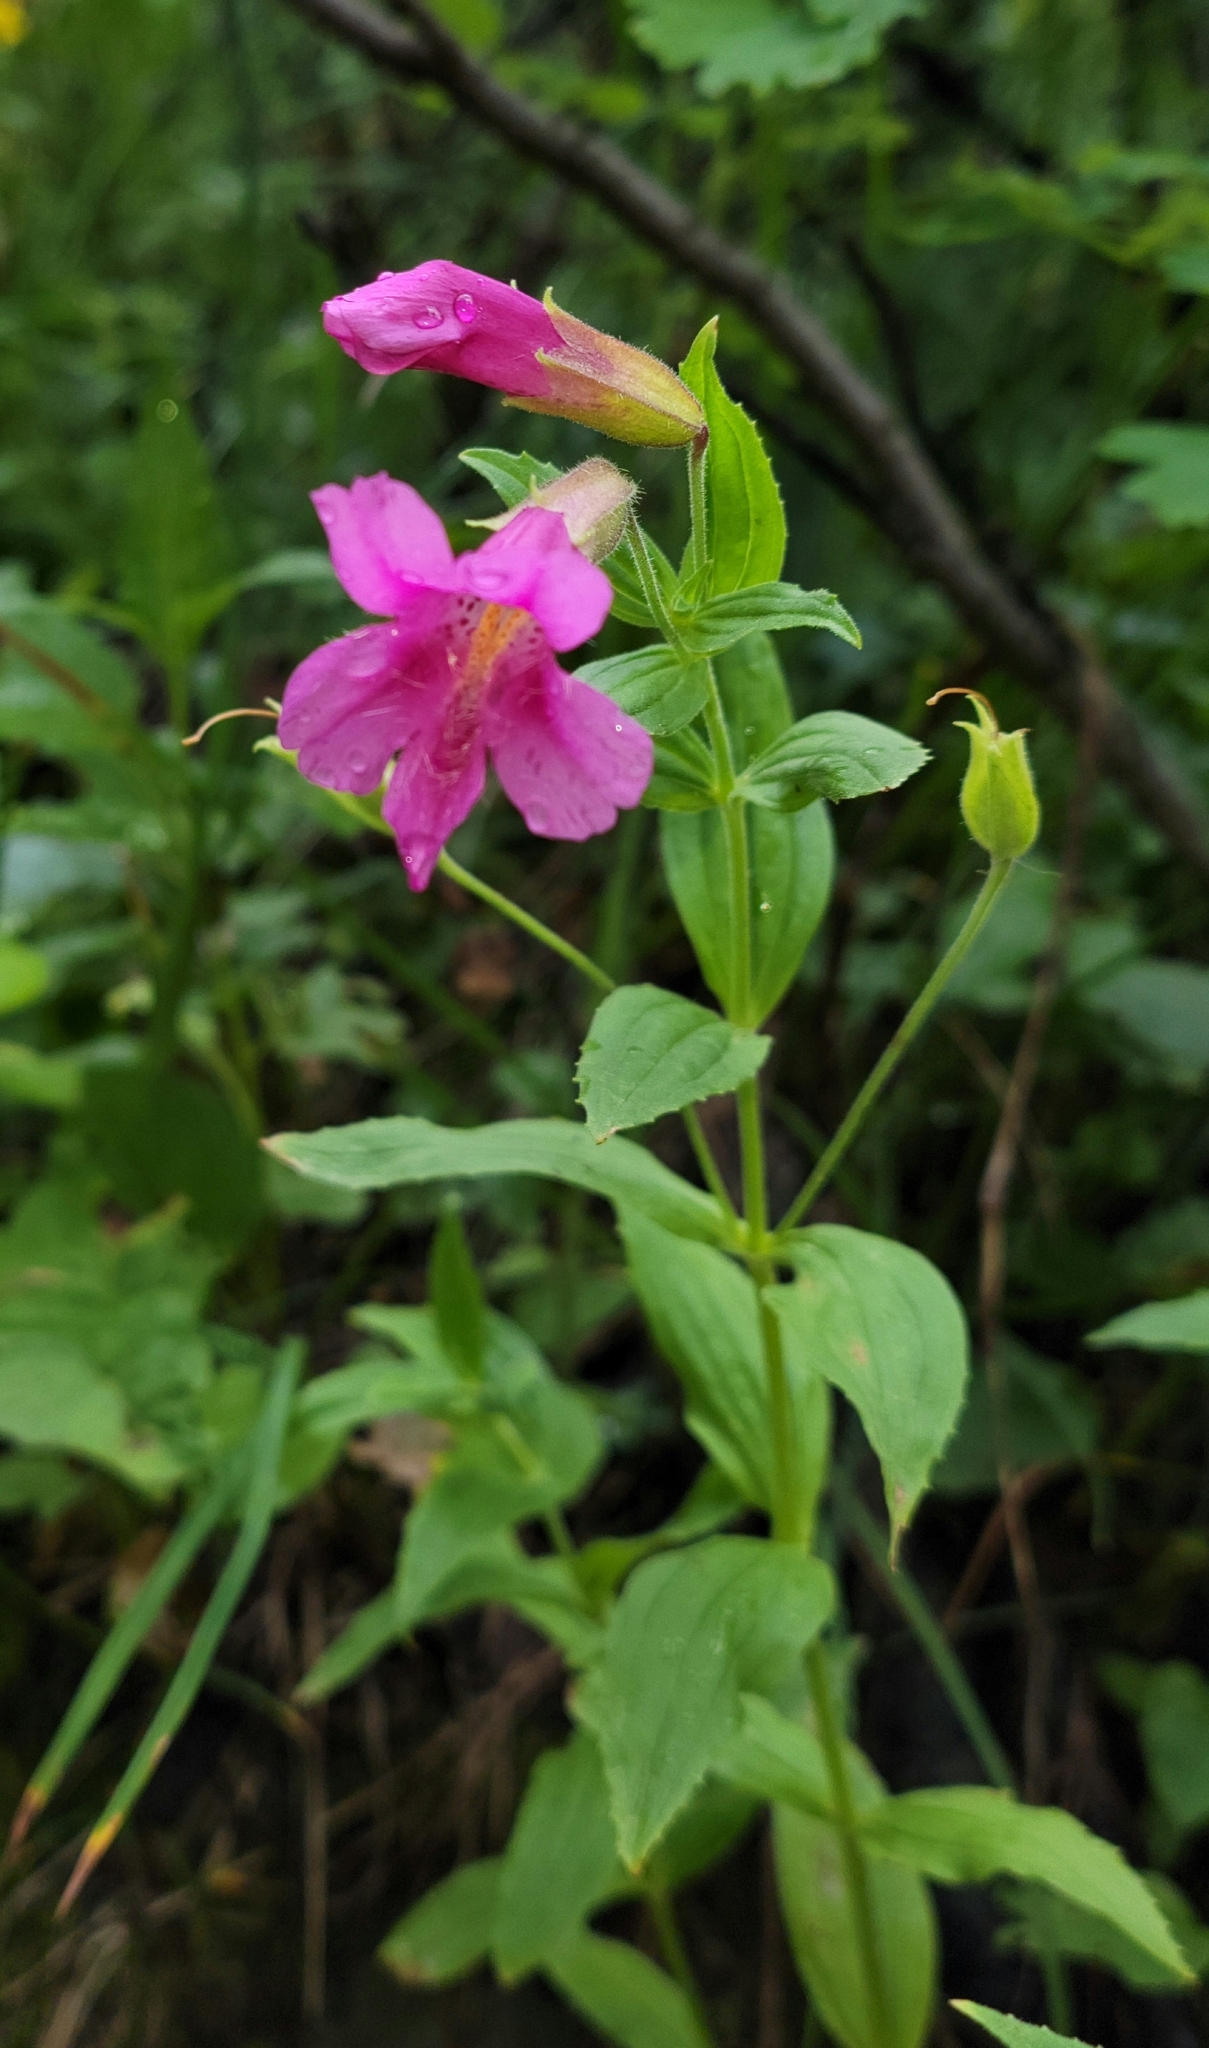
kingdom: Plantae
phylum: Tracheophyta
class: Magnoliopsida
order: Lamiales
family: Phrymaceae
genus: Erythranthe
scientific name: Erythranthe lewisii
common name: Lewis's monkey-flower
